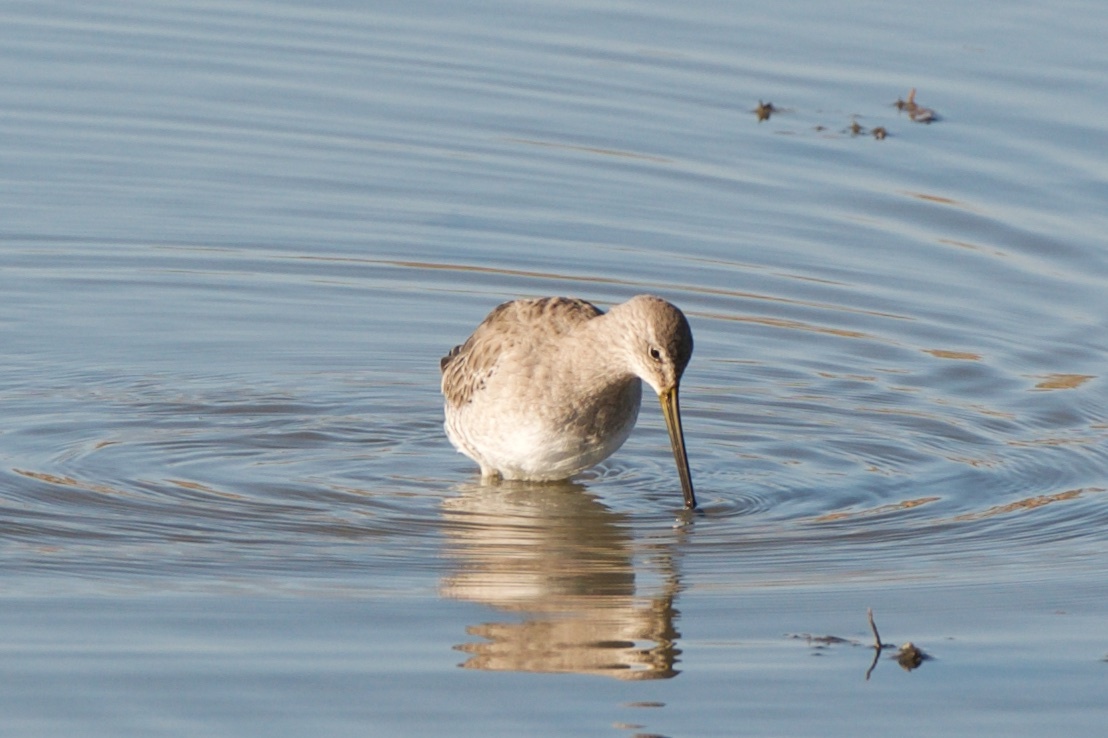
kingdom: Animalia
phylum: Chordata
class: Aves
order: Charadriiformes
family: Scolopacidae
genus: Limnodromus
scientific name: Limnodromus scolopaceus
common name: Long-billed dowitcher
